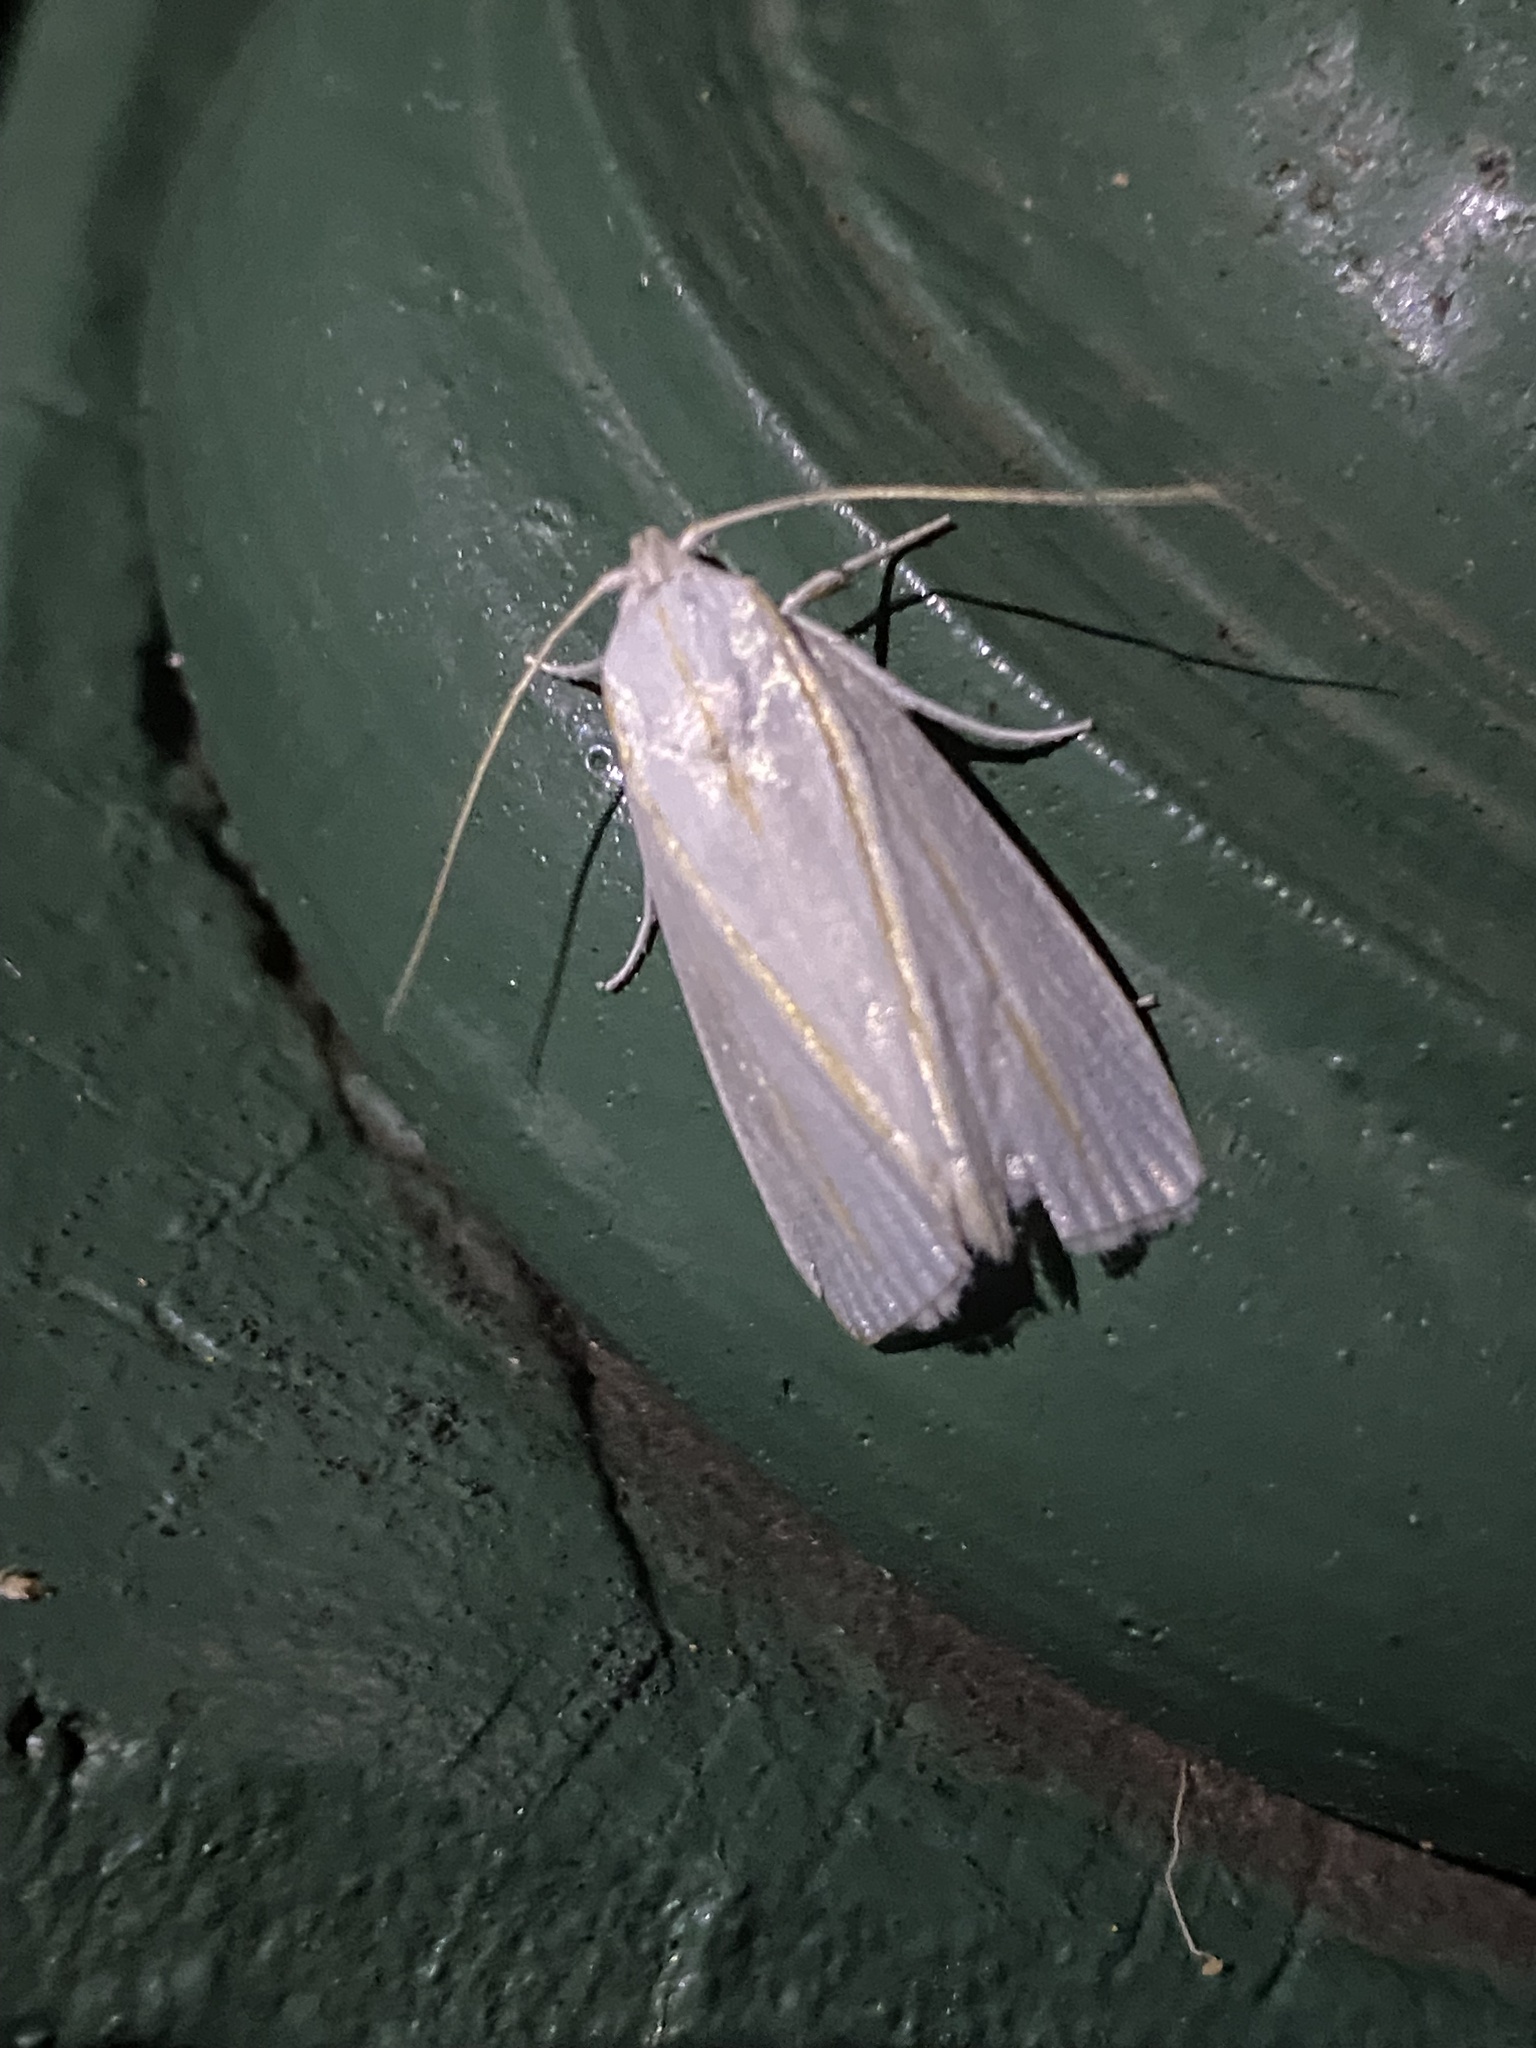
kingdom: Animalia
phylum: Arthropoda
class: Insecta
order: Lepidoptera
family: Xyloryctidae
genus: Cryptophasa
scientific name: Cryptophasa flavolineata
